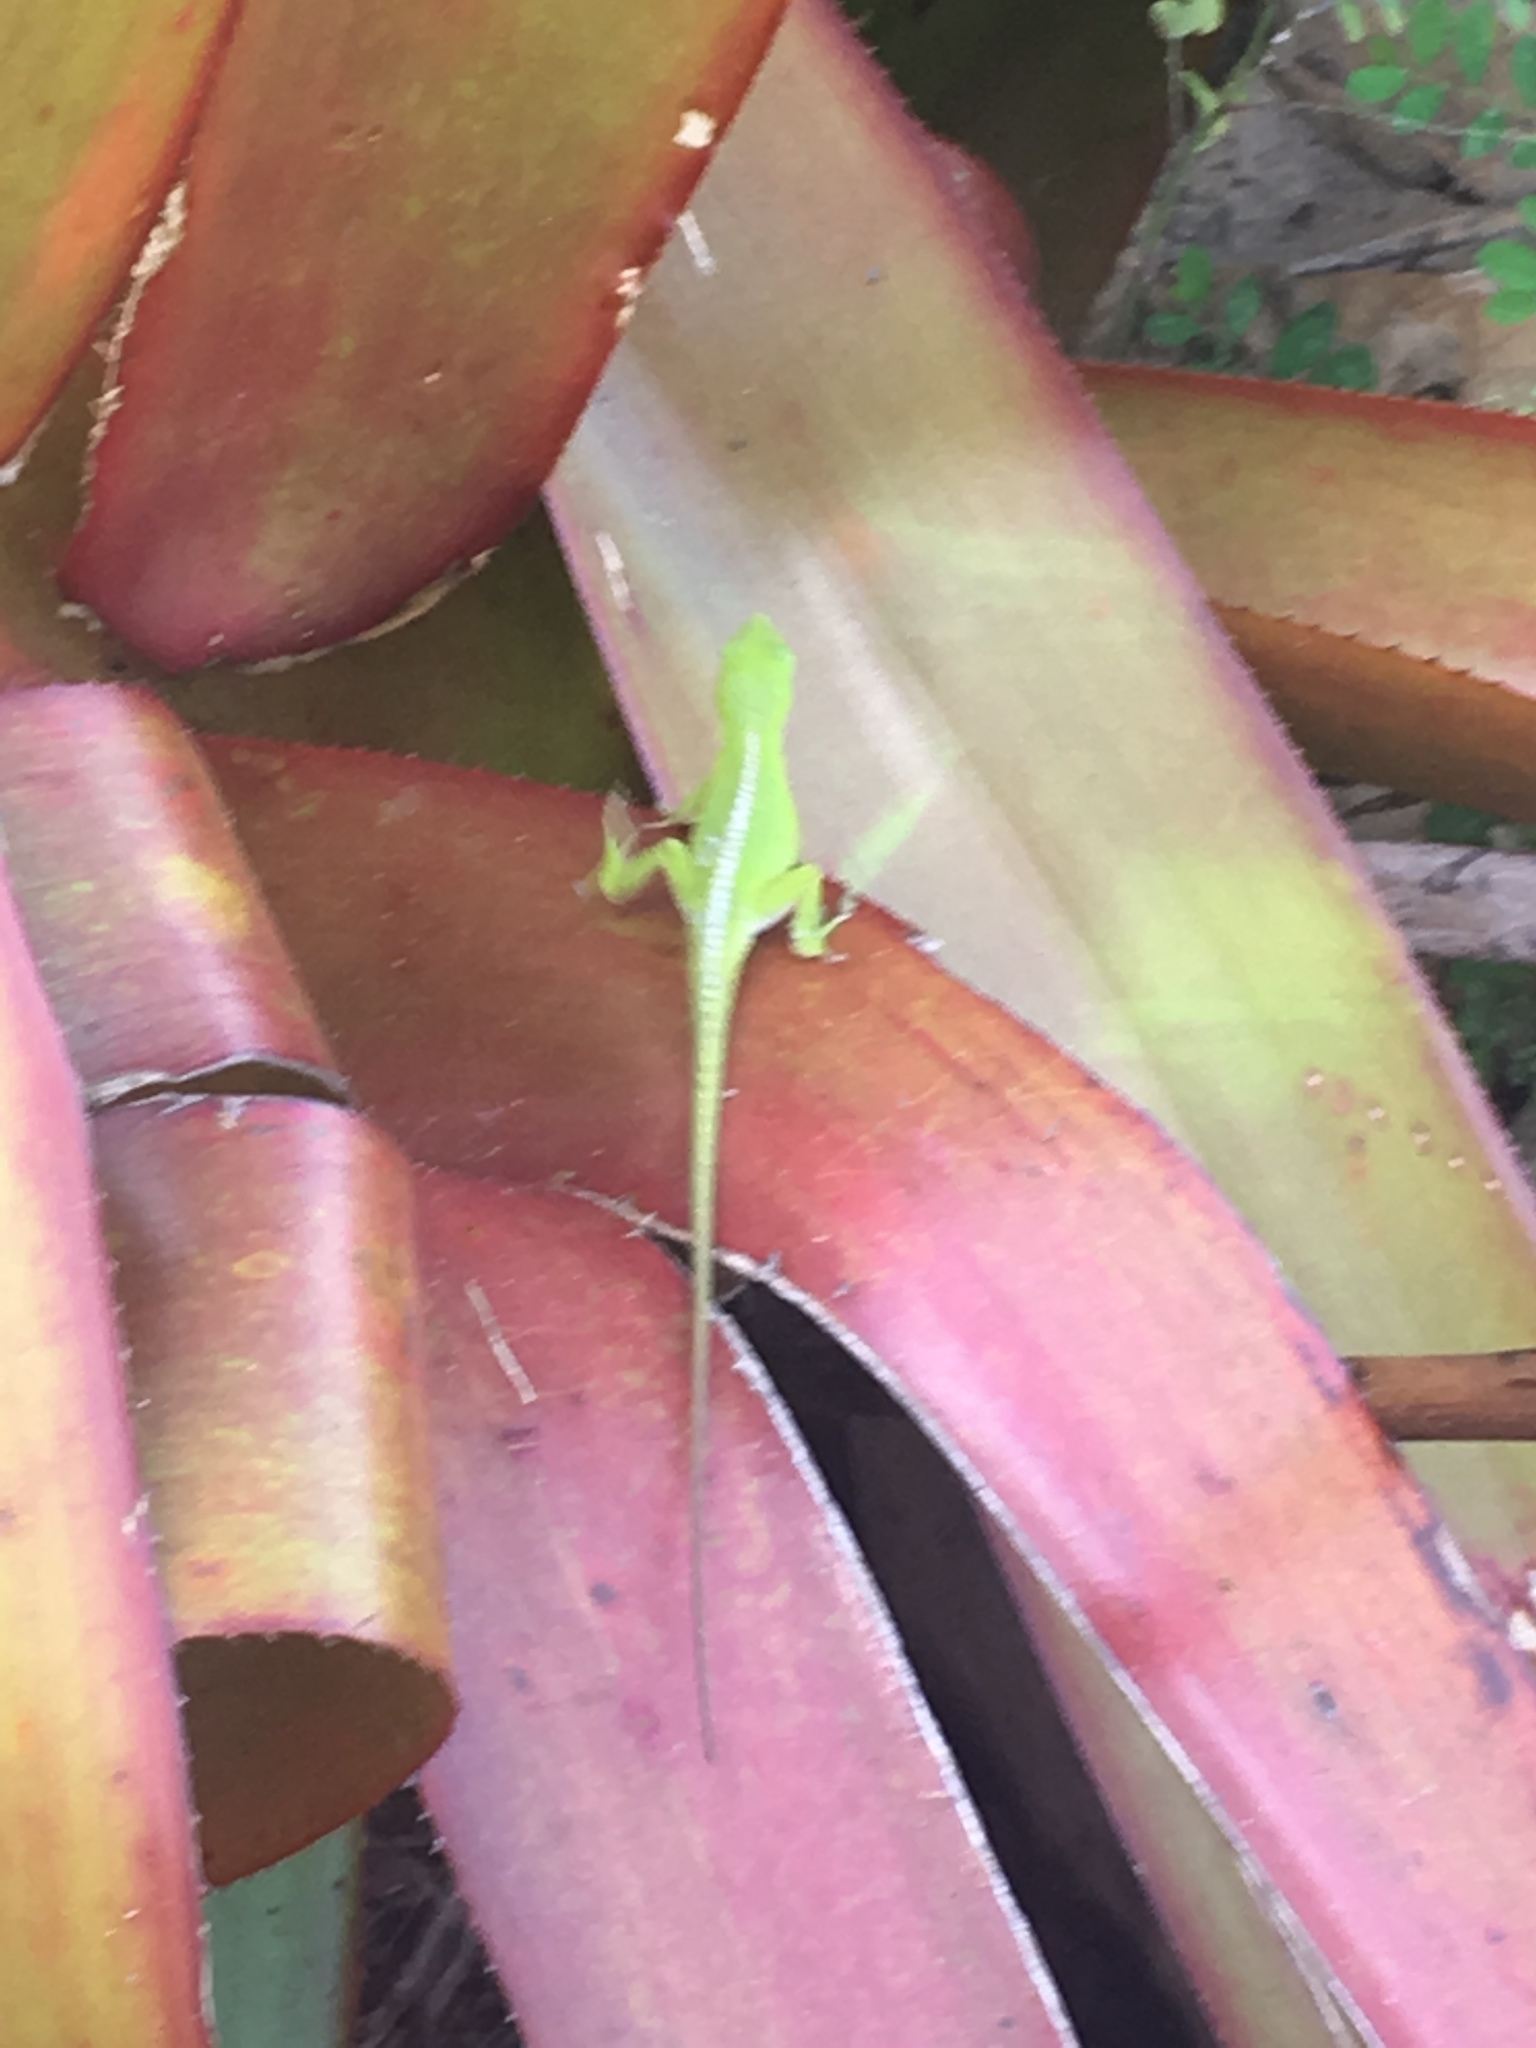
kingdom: Animalia
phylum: Chordata
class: Squamata
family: Dactyloidae
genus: Anolis
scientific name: Anolis carolinensis
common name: Green anole
